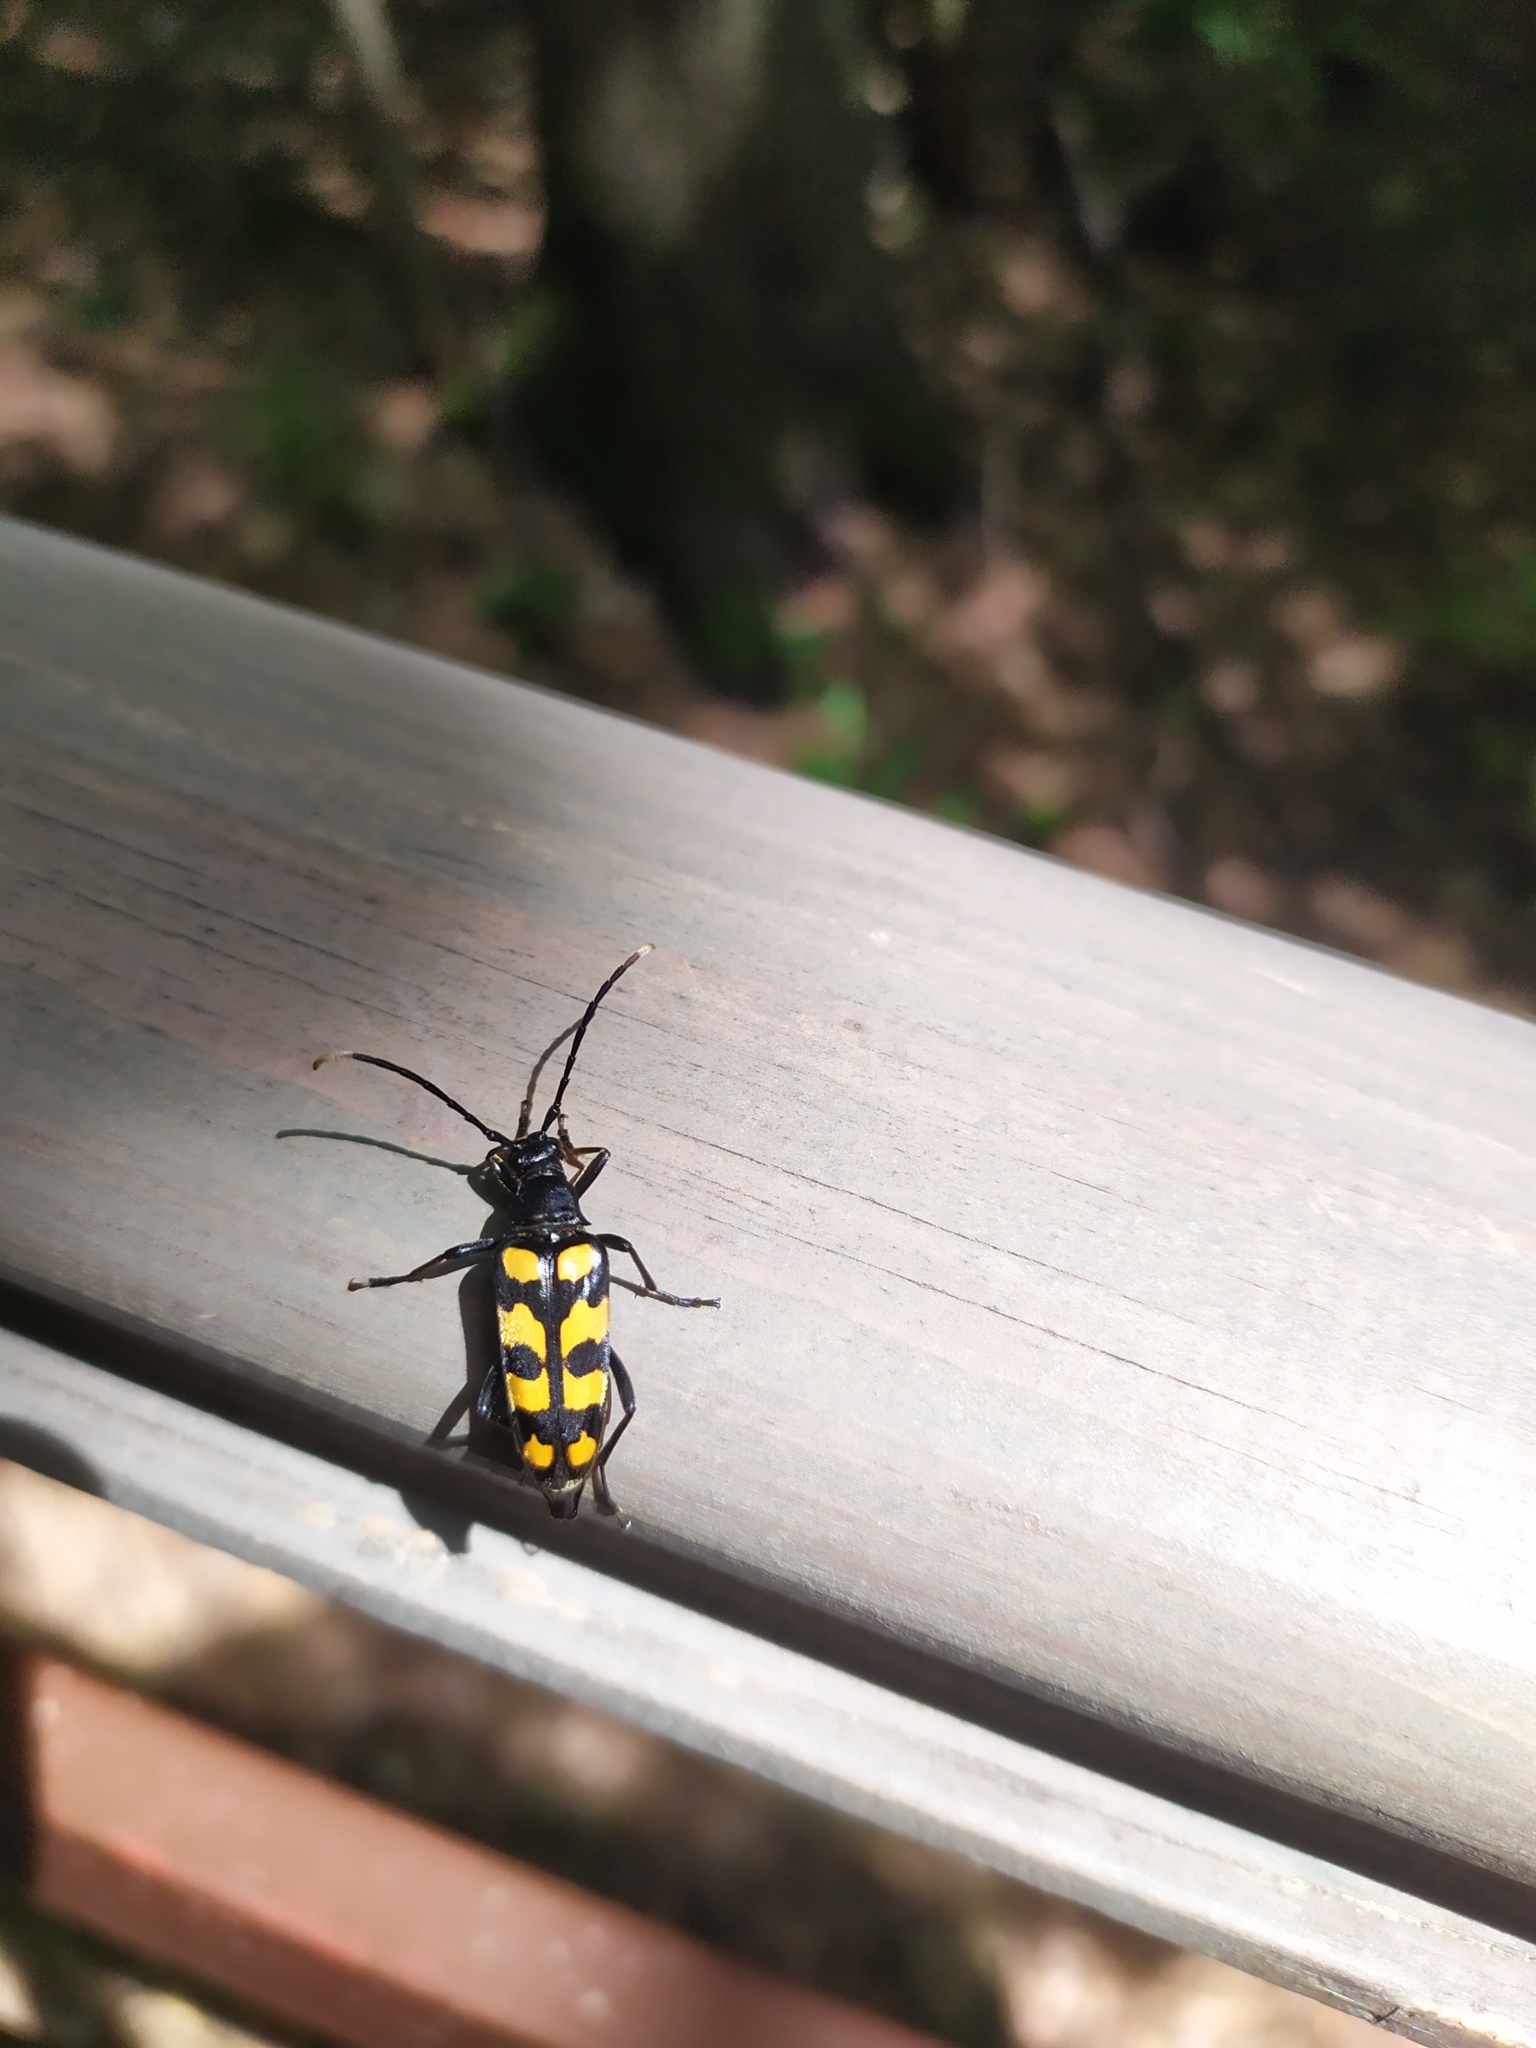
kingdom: Animalia
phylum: Arthropoda
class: Insecta
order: Coleoptera
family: Cerambycidae
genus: Leptura
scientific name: Leptura quadrifasciata
